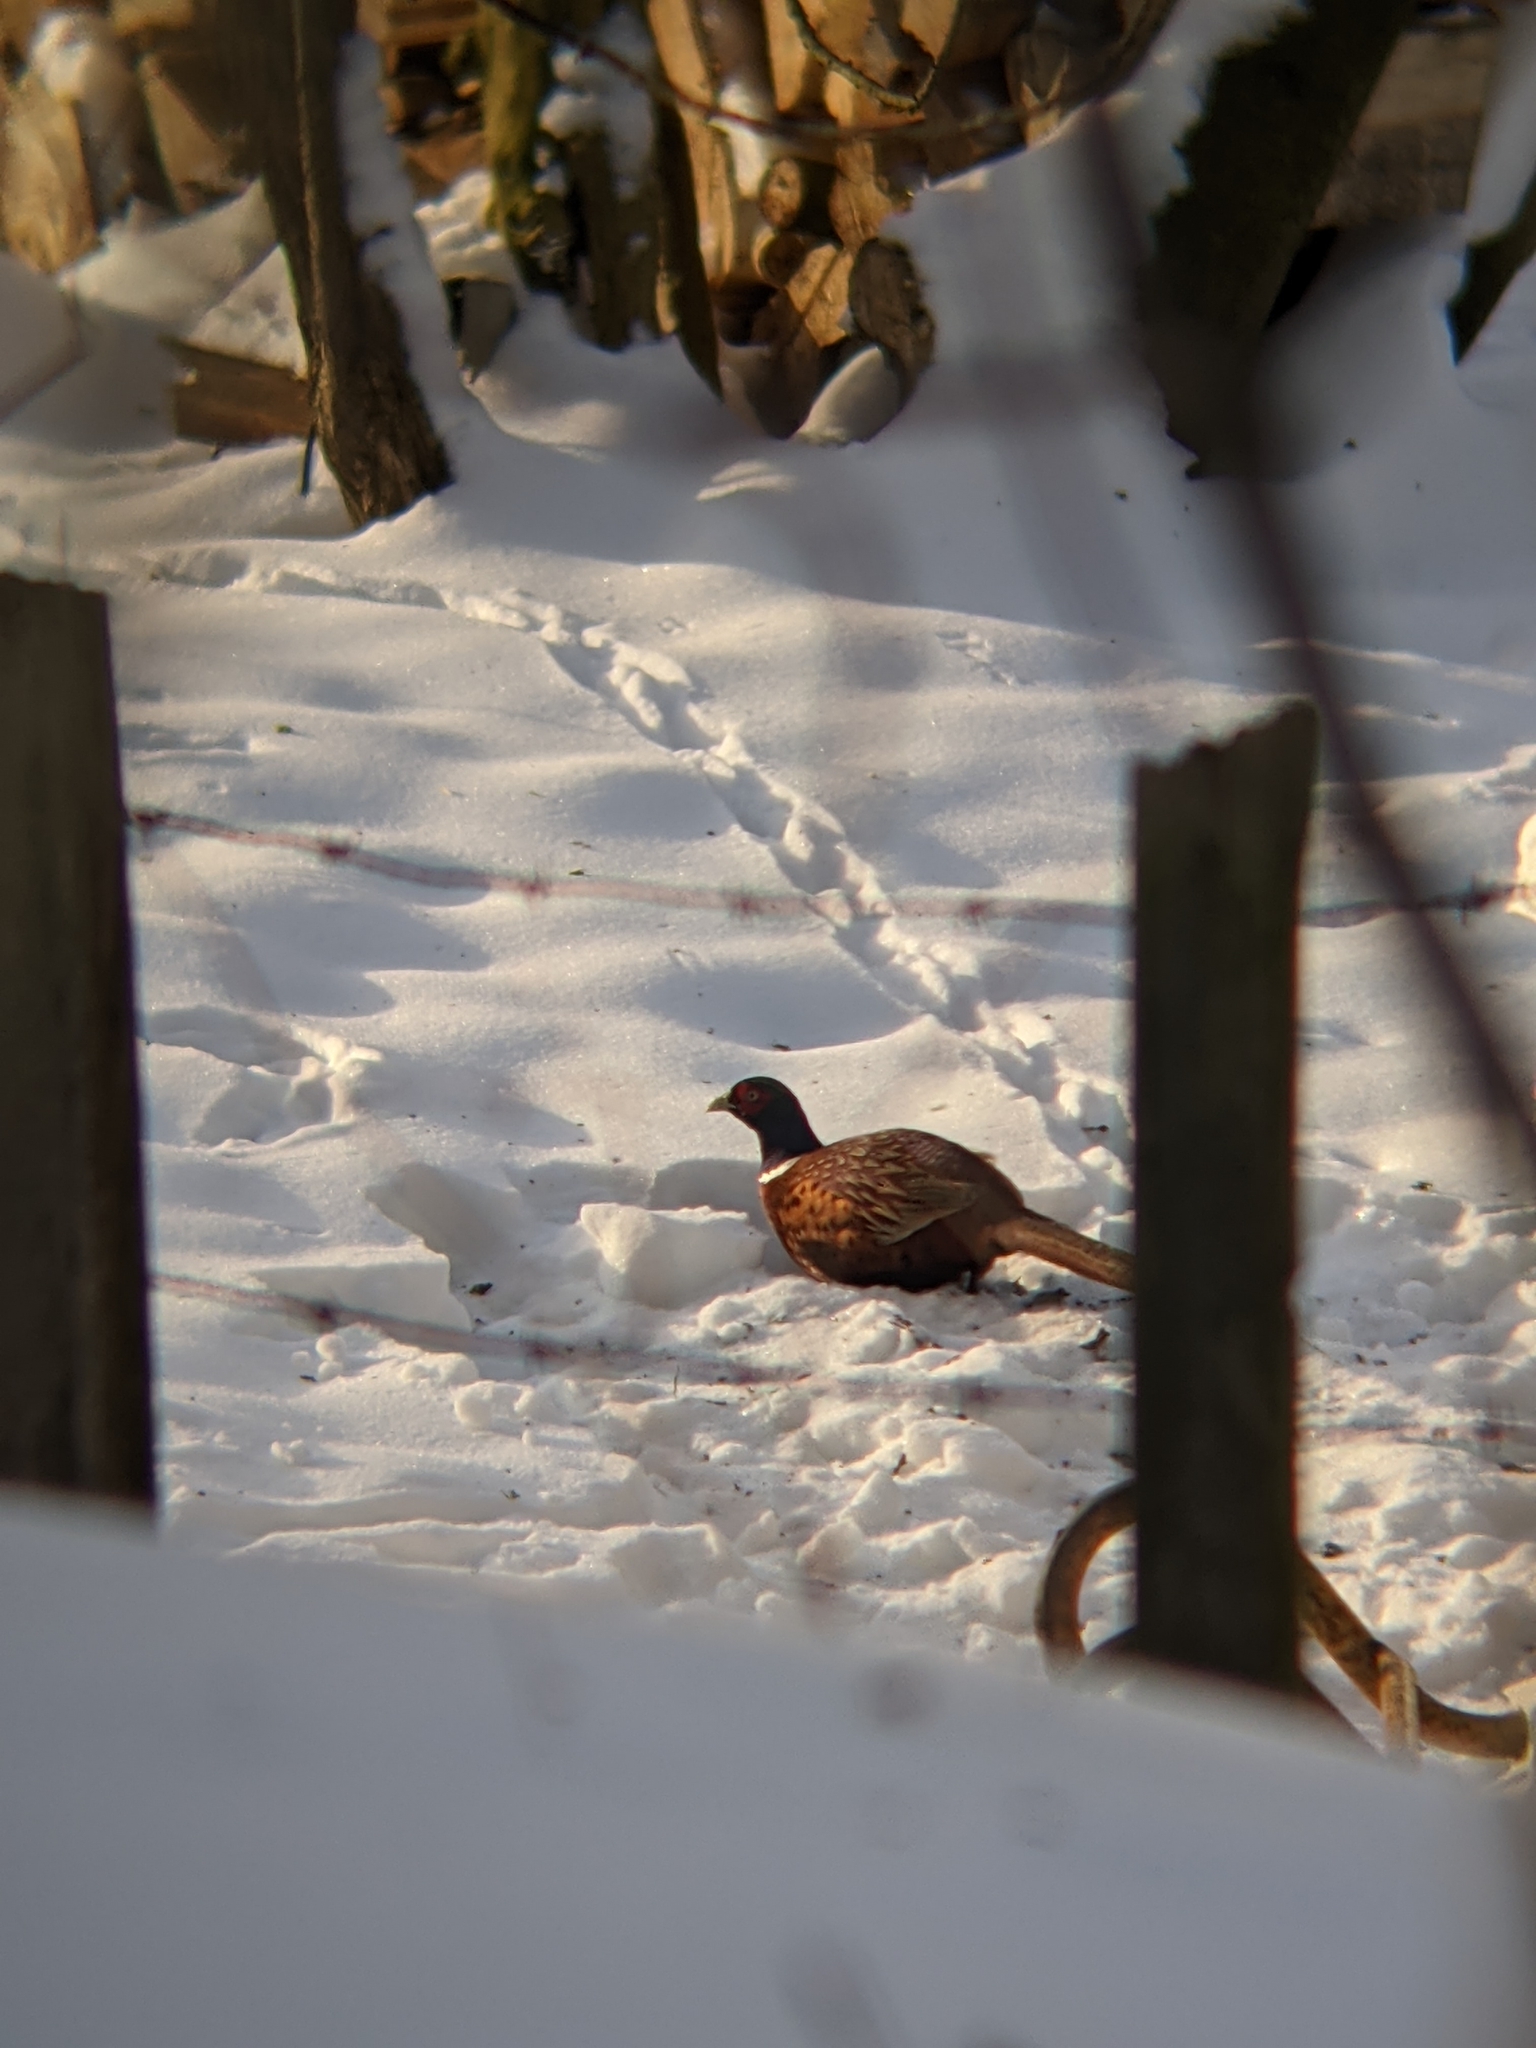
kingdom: Animalia
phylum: Chordata
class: Aves
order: Galliformes
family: Phasianidae
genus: Phasianus
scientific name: Phasianus colchicus
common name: Common pheasant
